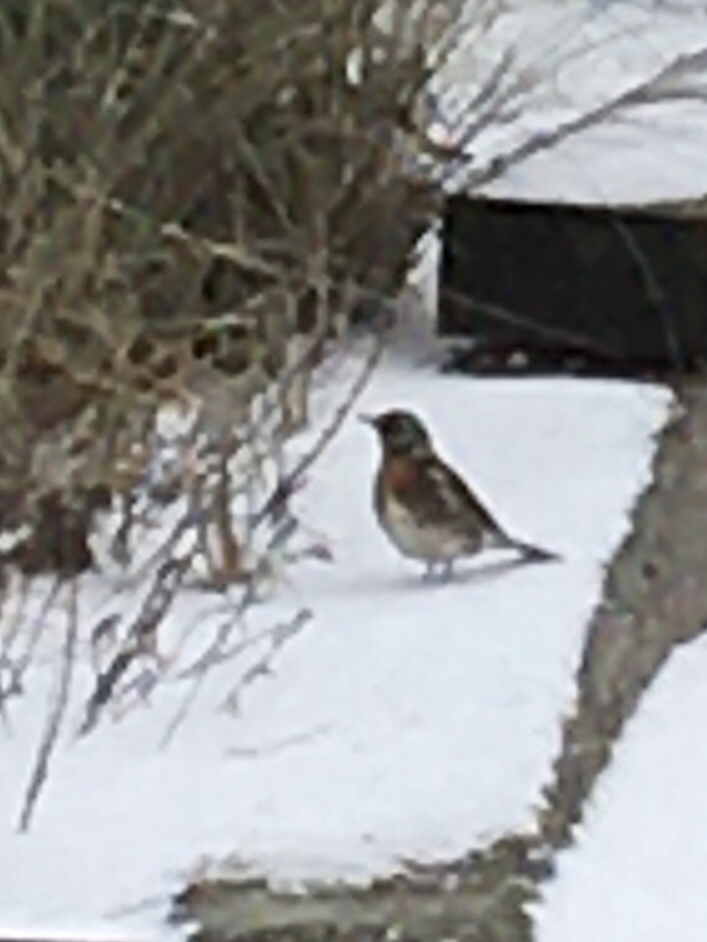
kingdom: Animalia
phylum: Chordata
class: Aves
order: Passeriformes
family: Turdidae
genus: Turdus
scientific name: Turdus pilaris
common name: Fieldfare
